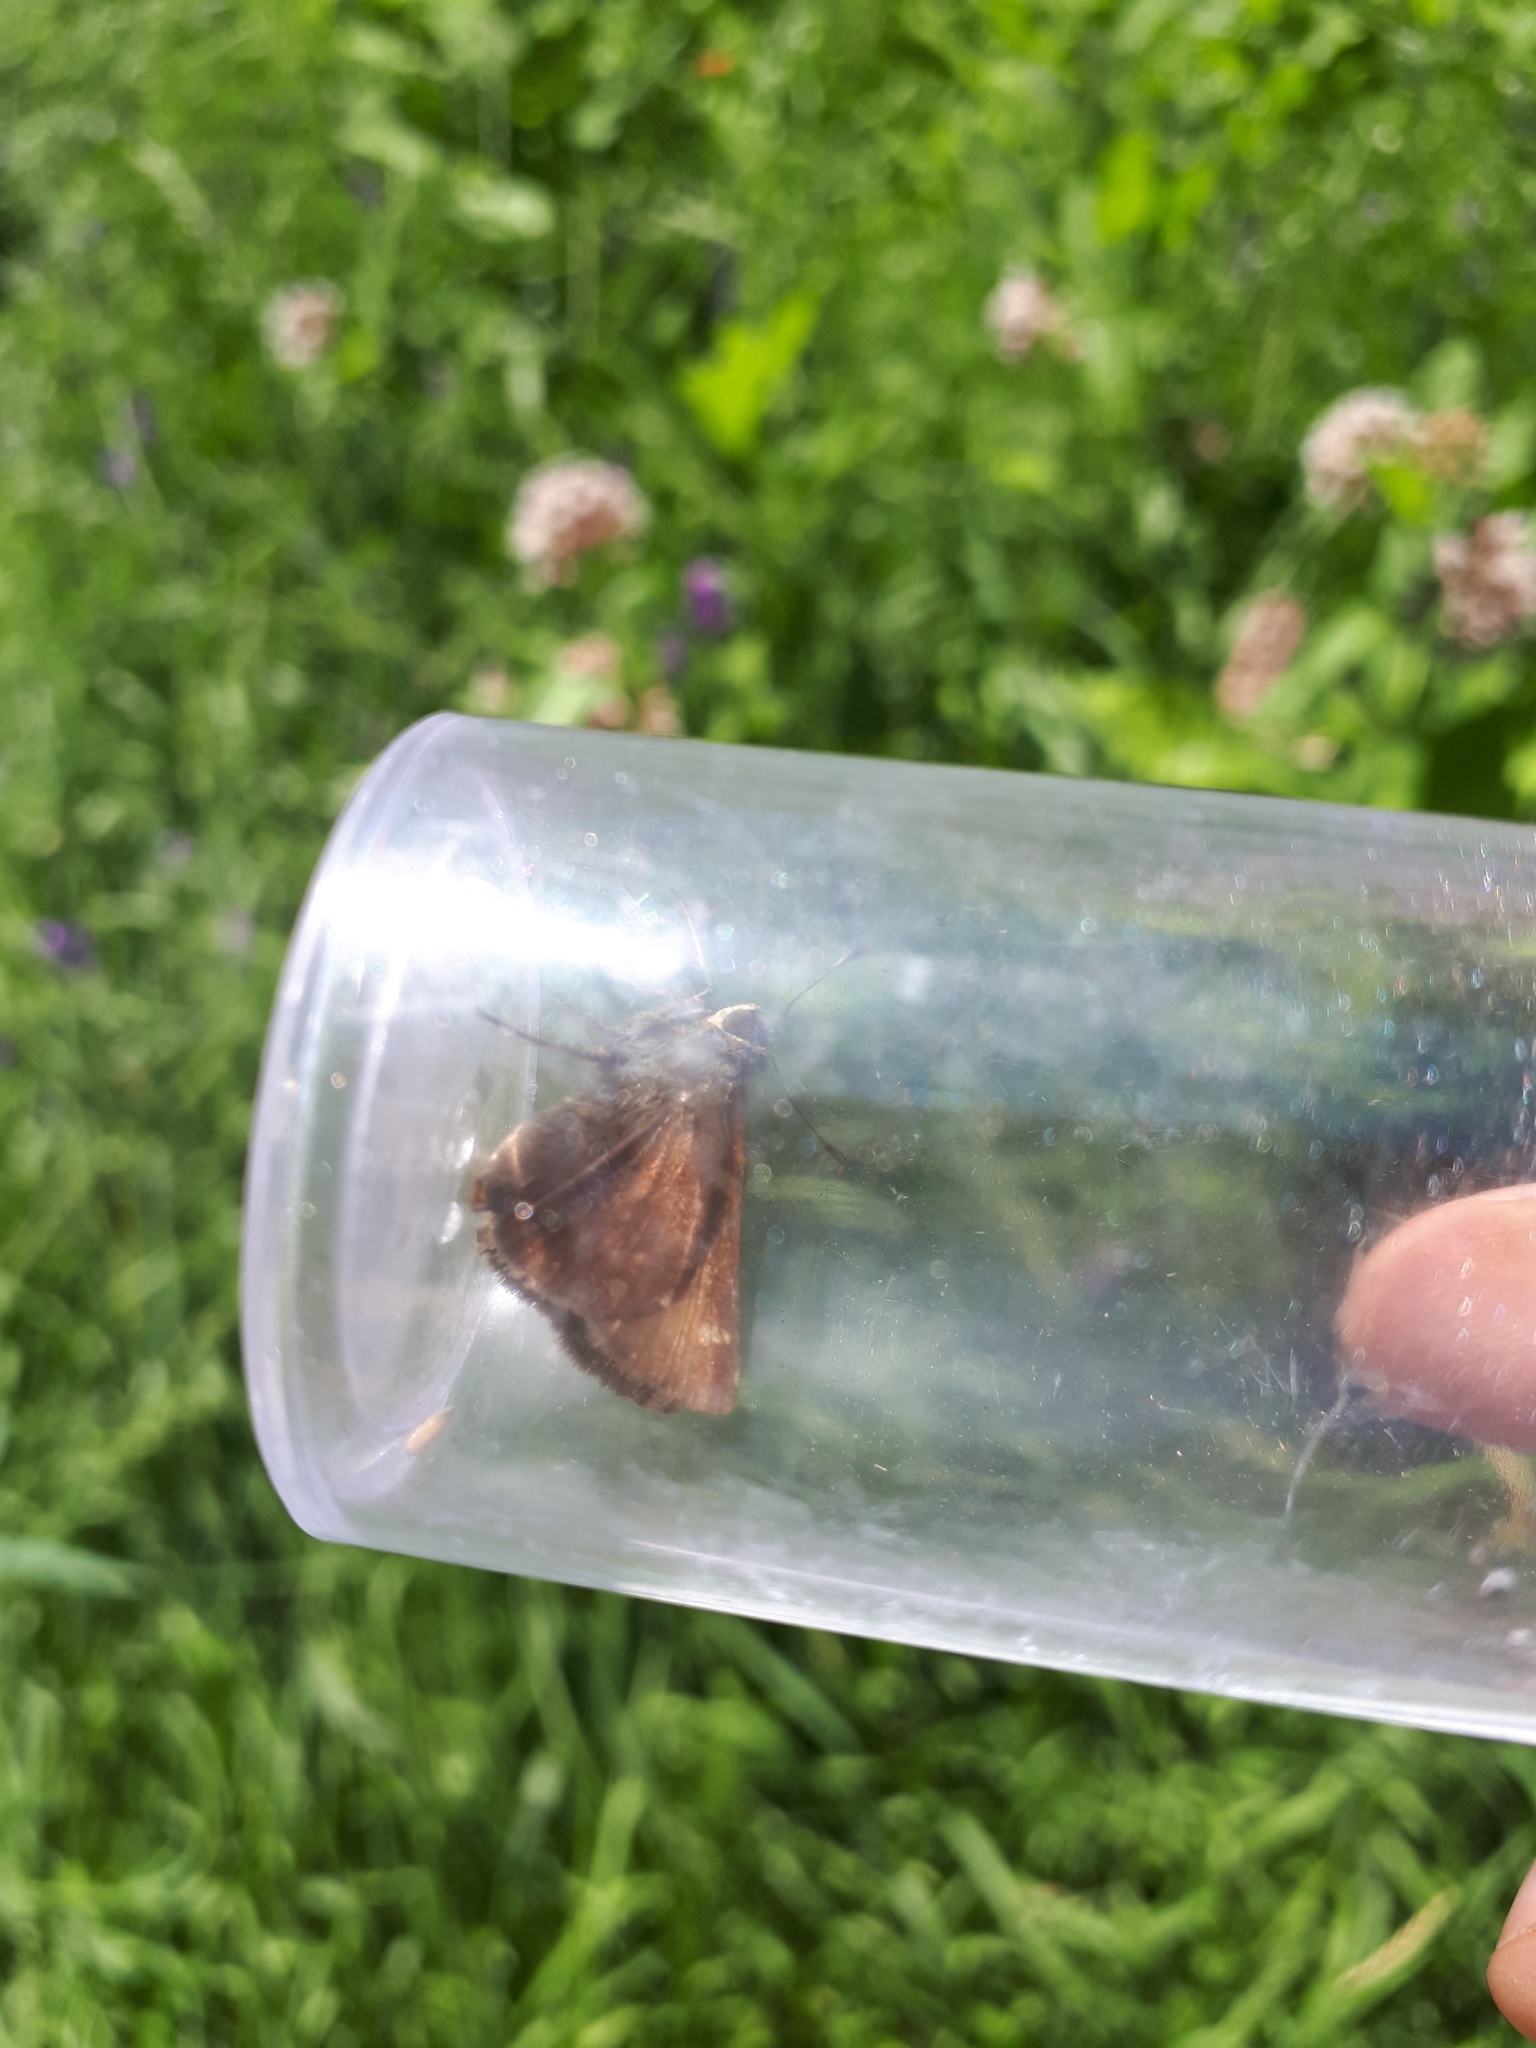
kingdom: Animalia
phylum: Arthropoda
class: Insecta
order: Lepidoptera
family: Hesperiidae
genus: Vernia
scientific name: Vernia verna
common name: Little glassywing
